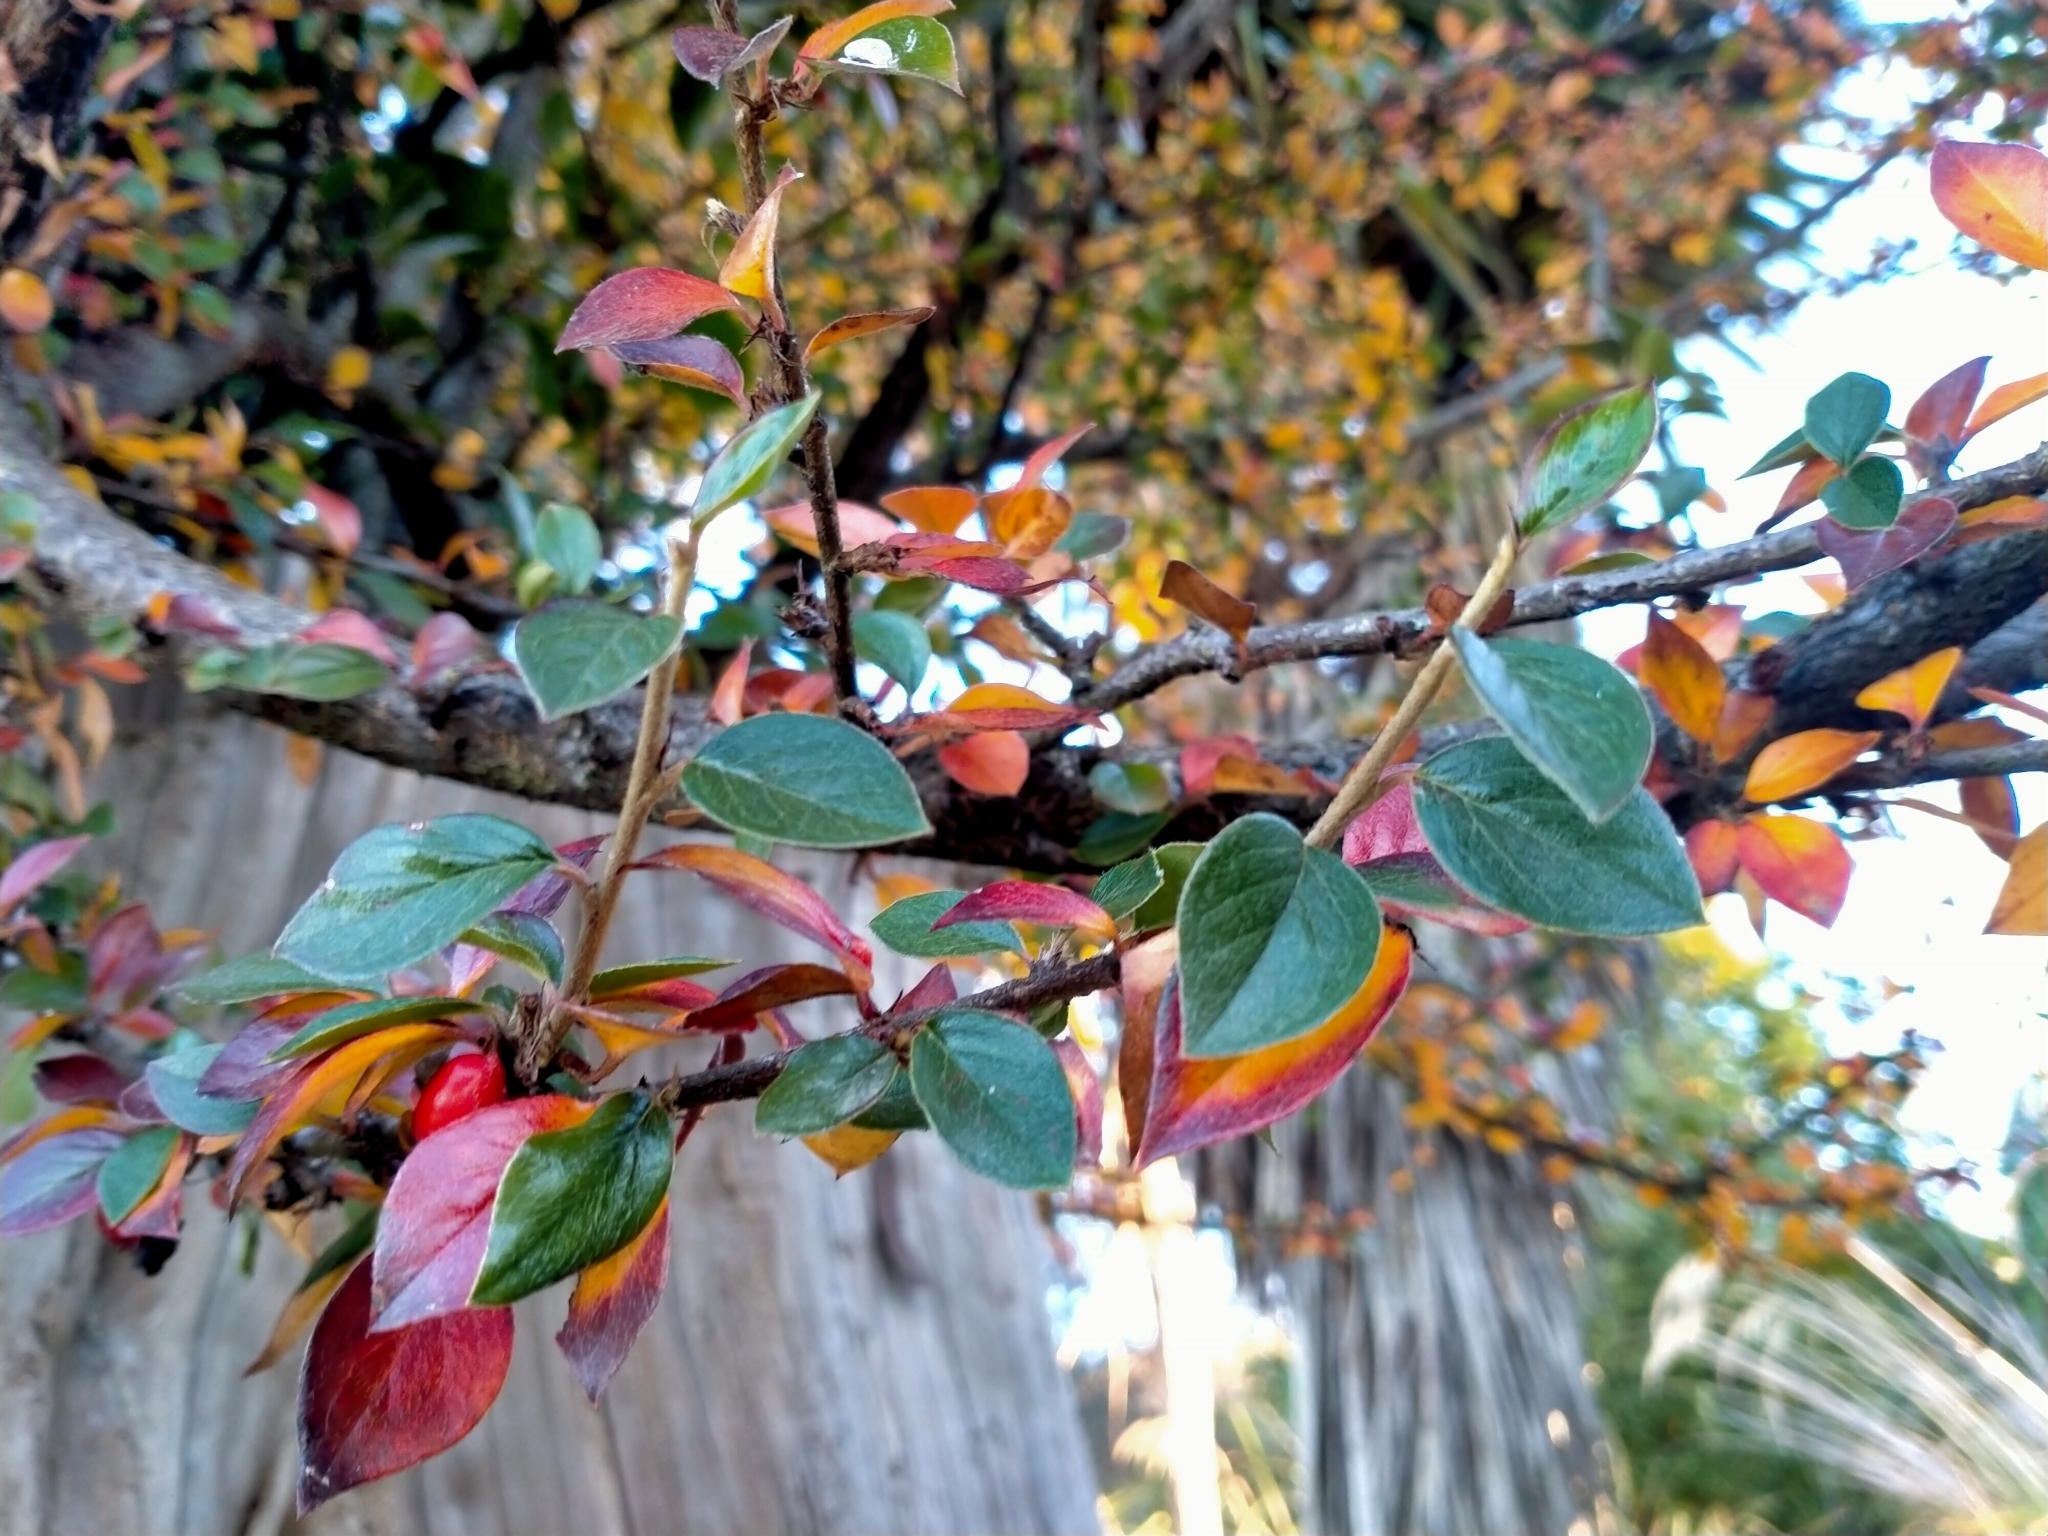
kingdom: Plantae
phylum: Tracheophyta
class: Magnoliopsida
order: Rosales
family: Rosaceae
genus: Cotoneaster
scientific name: Cotoneaster simonsii
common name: Himalayan cotoneaster
